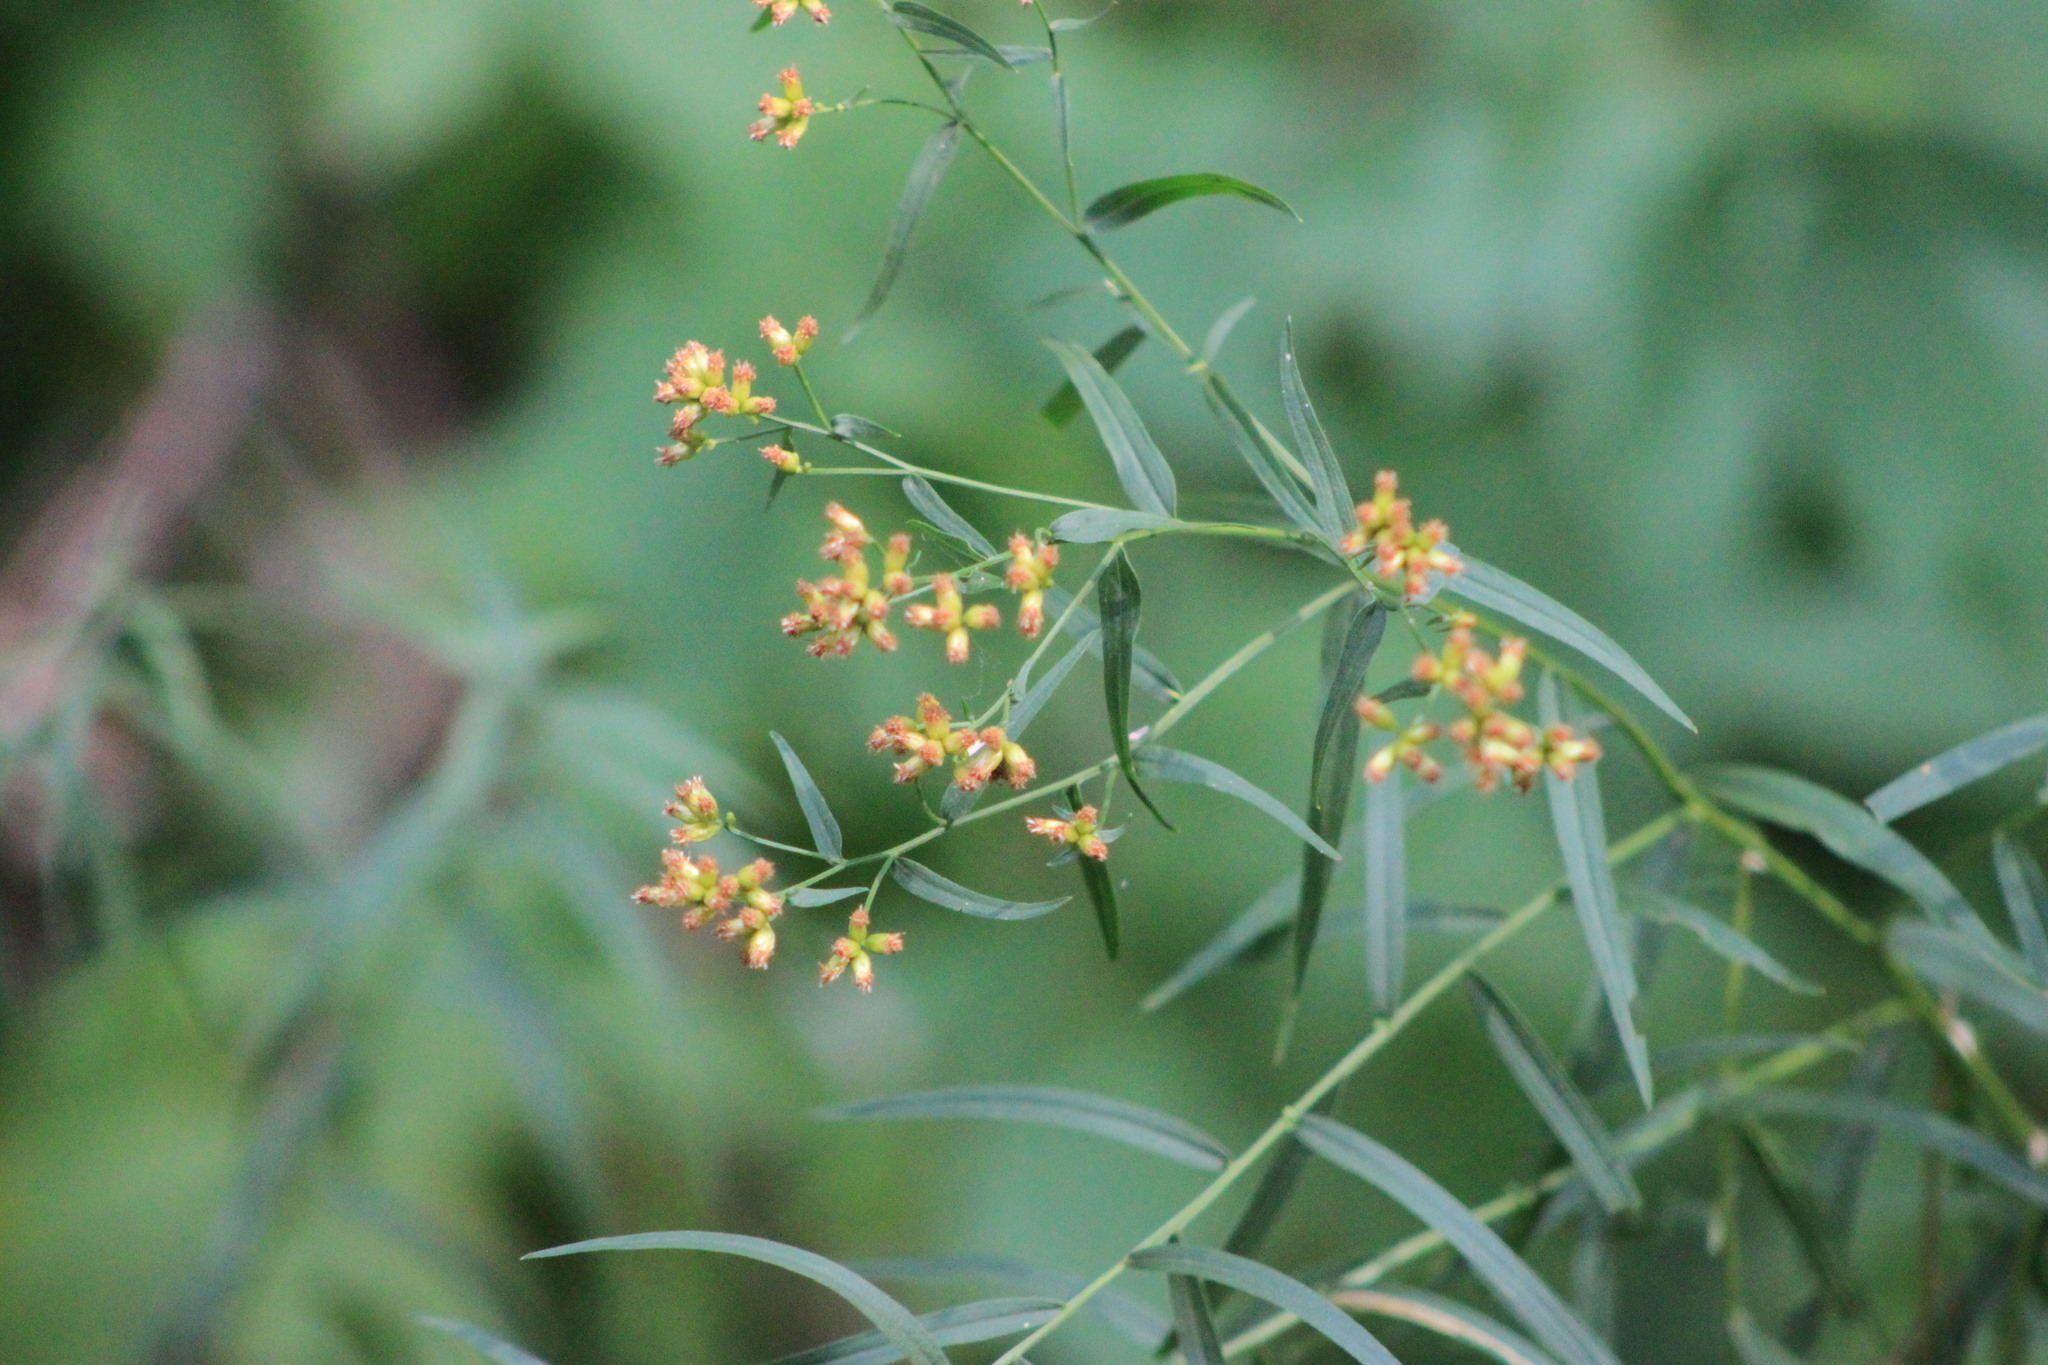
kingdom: Plantae
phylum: Tracheophyta
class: Magnoliopsida
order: Asterales
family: Asteraceae
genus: Euthamia
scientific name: Euthamia graminifolia
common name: Common goldentop
